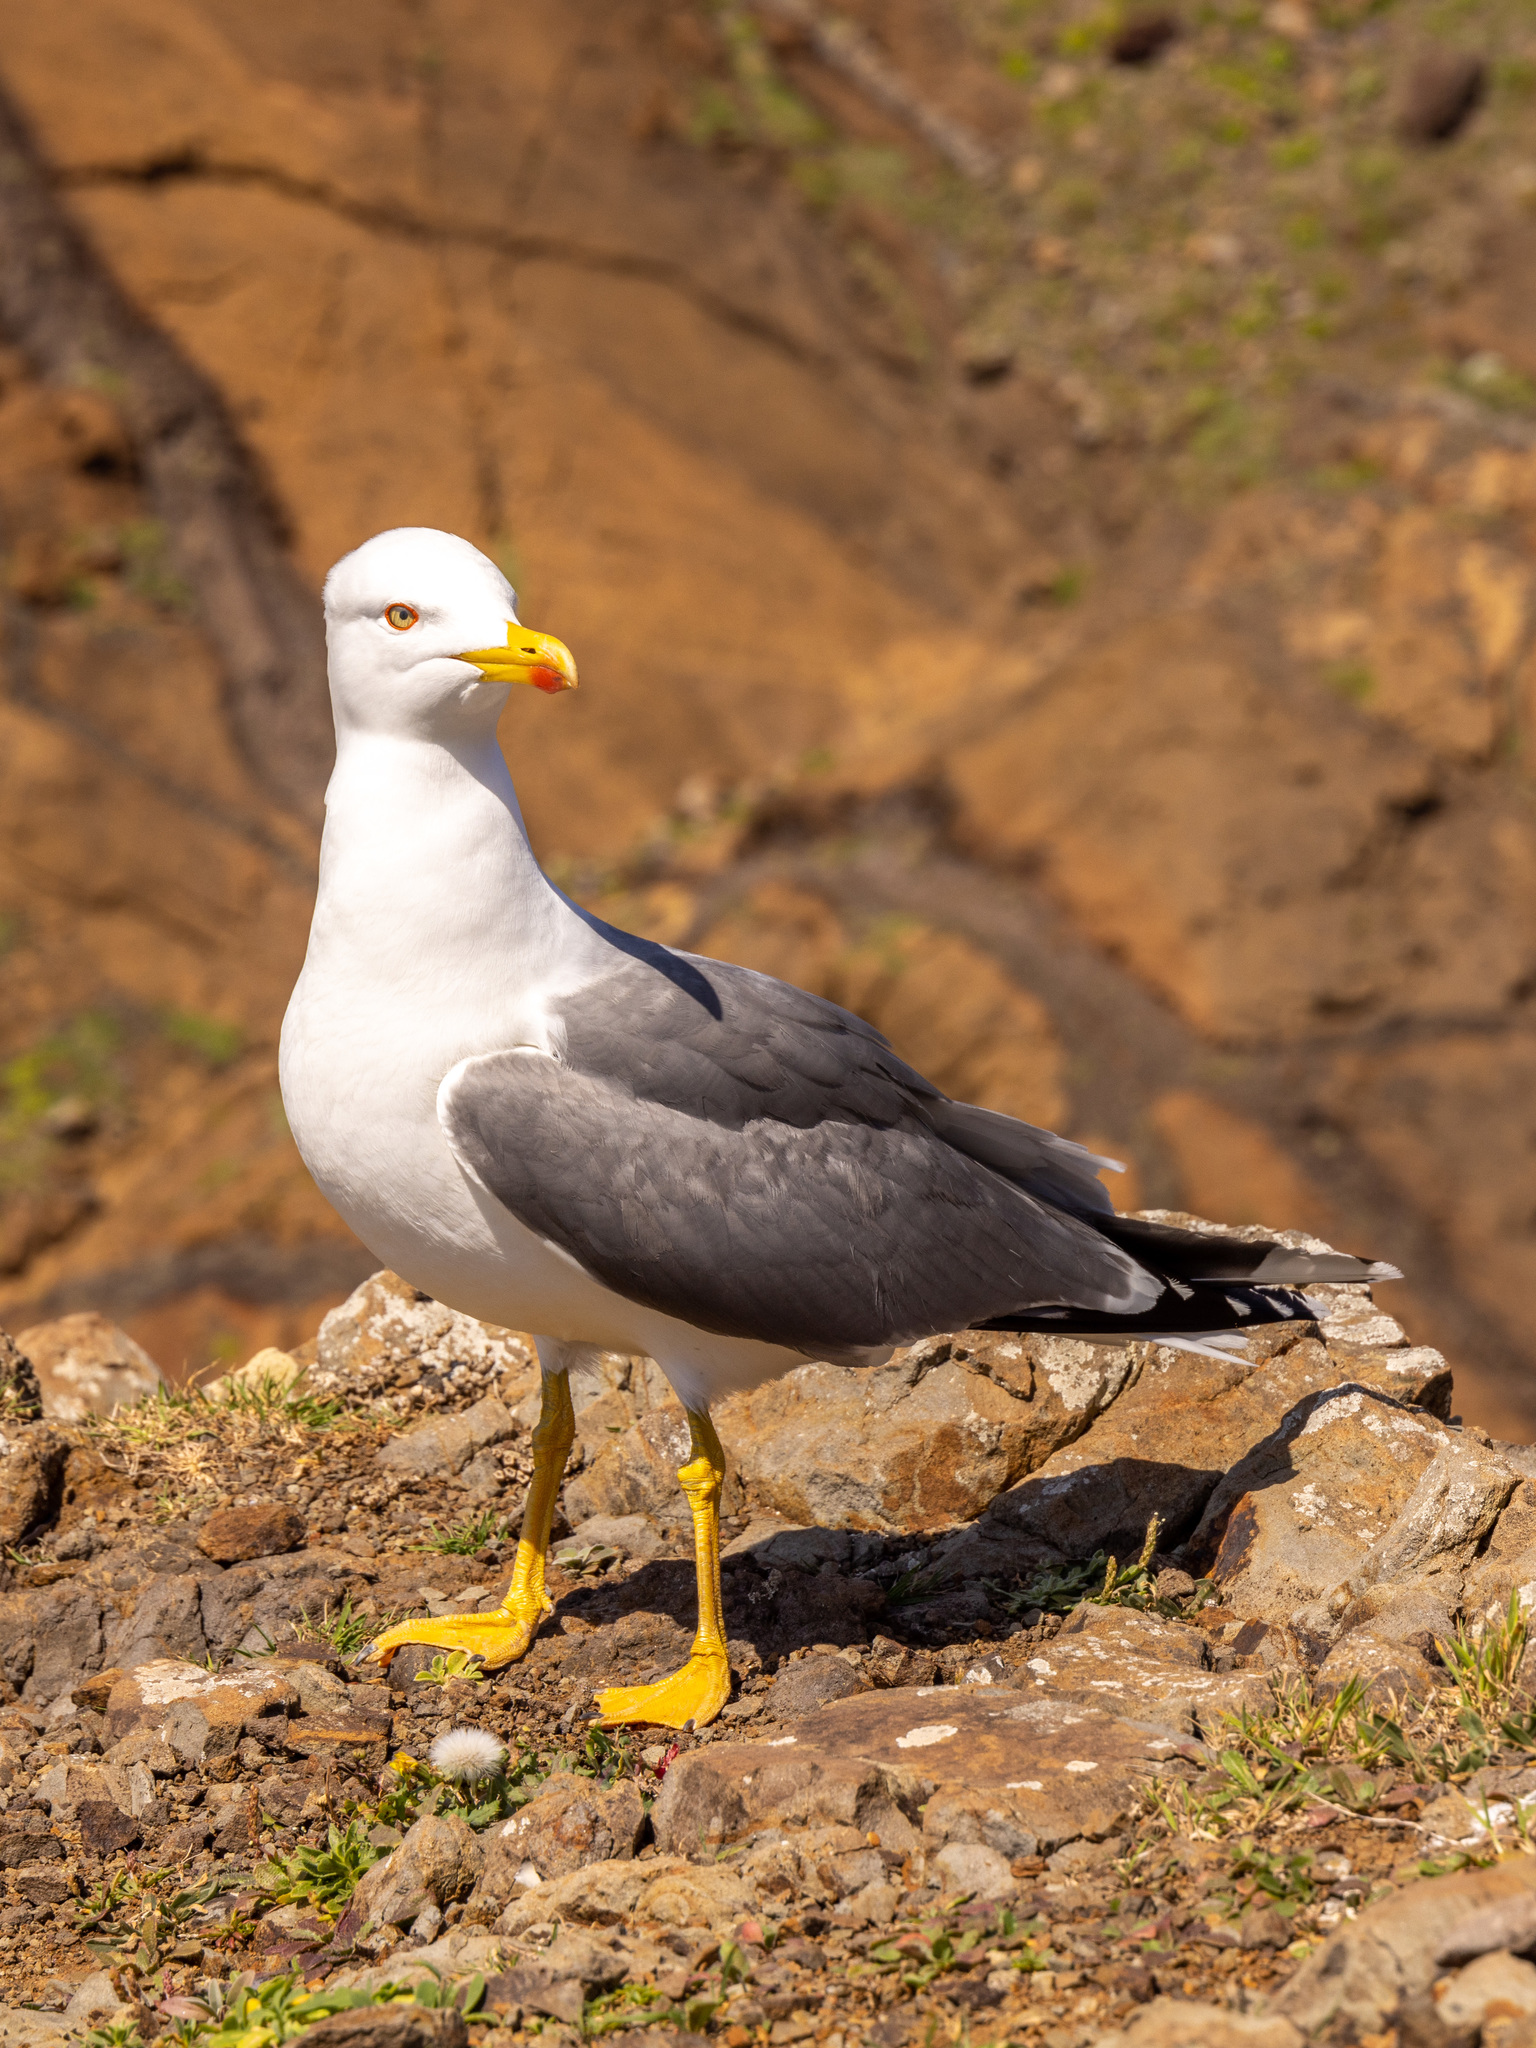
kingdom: Animalia
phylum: Chordata
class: Aves
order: Charadriiformes
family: Laridae
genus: Larus
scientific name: Larus michahellis
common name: Yellow-legged gull
